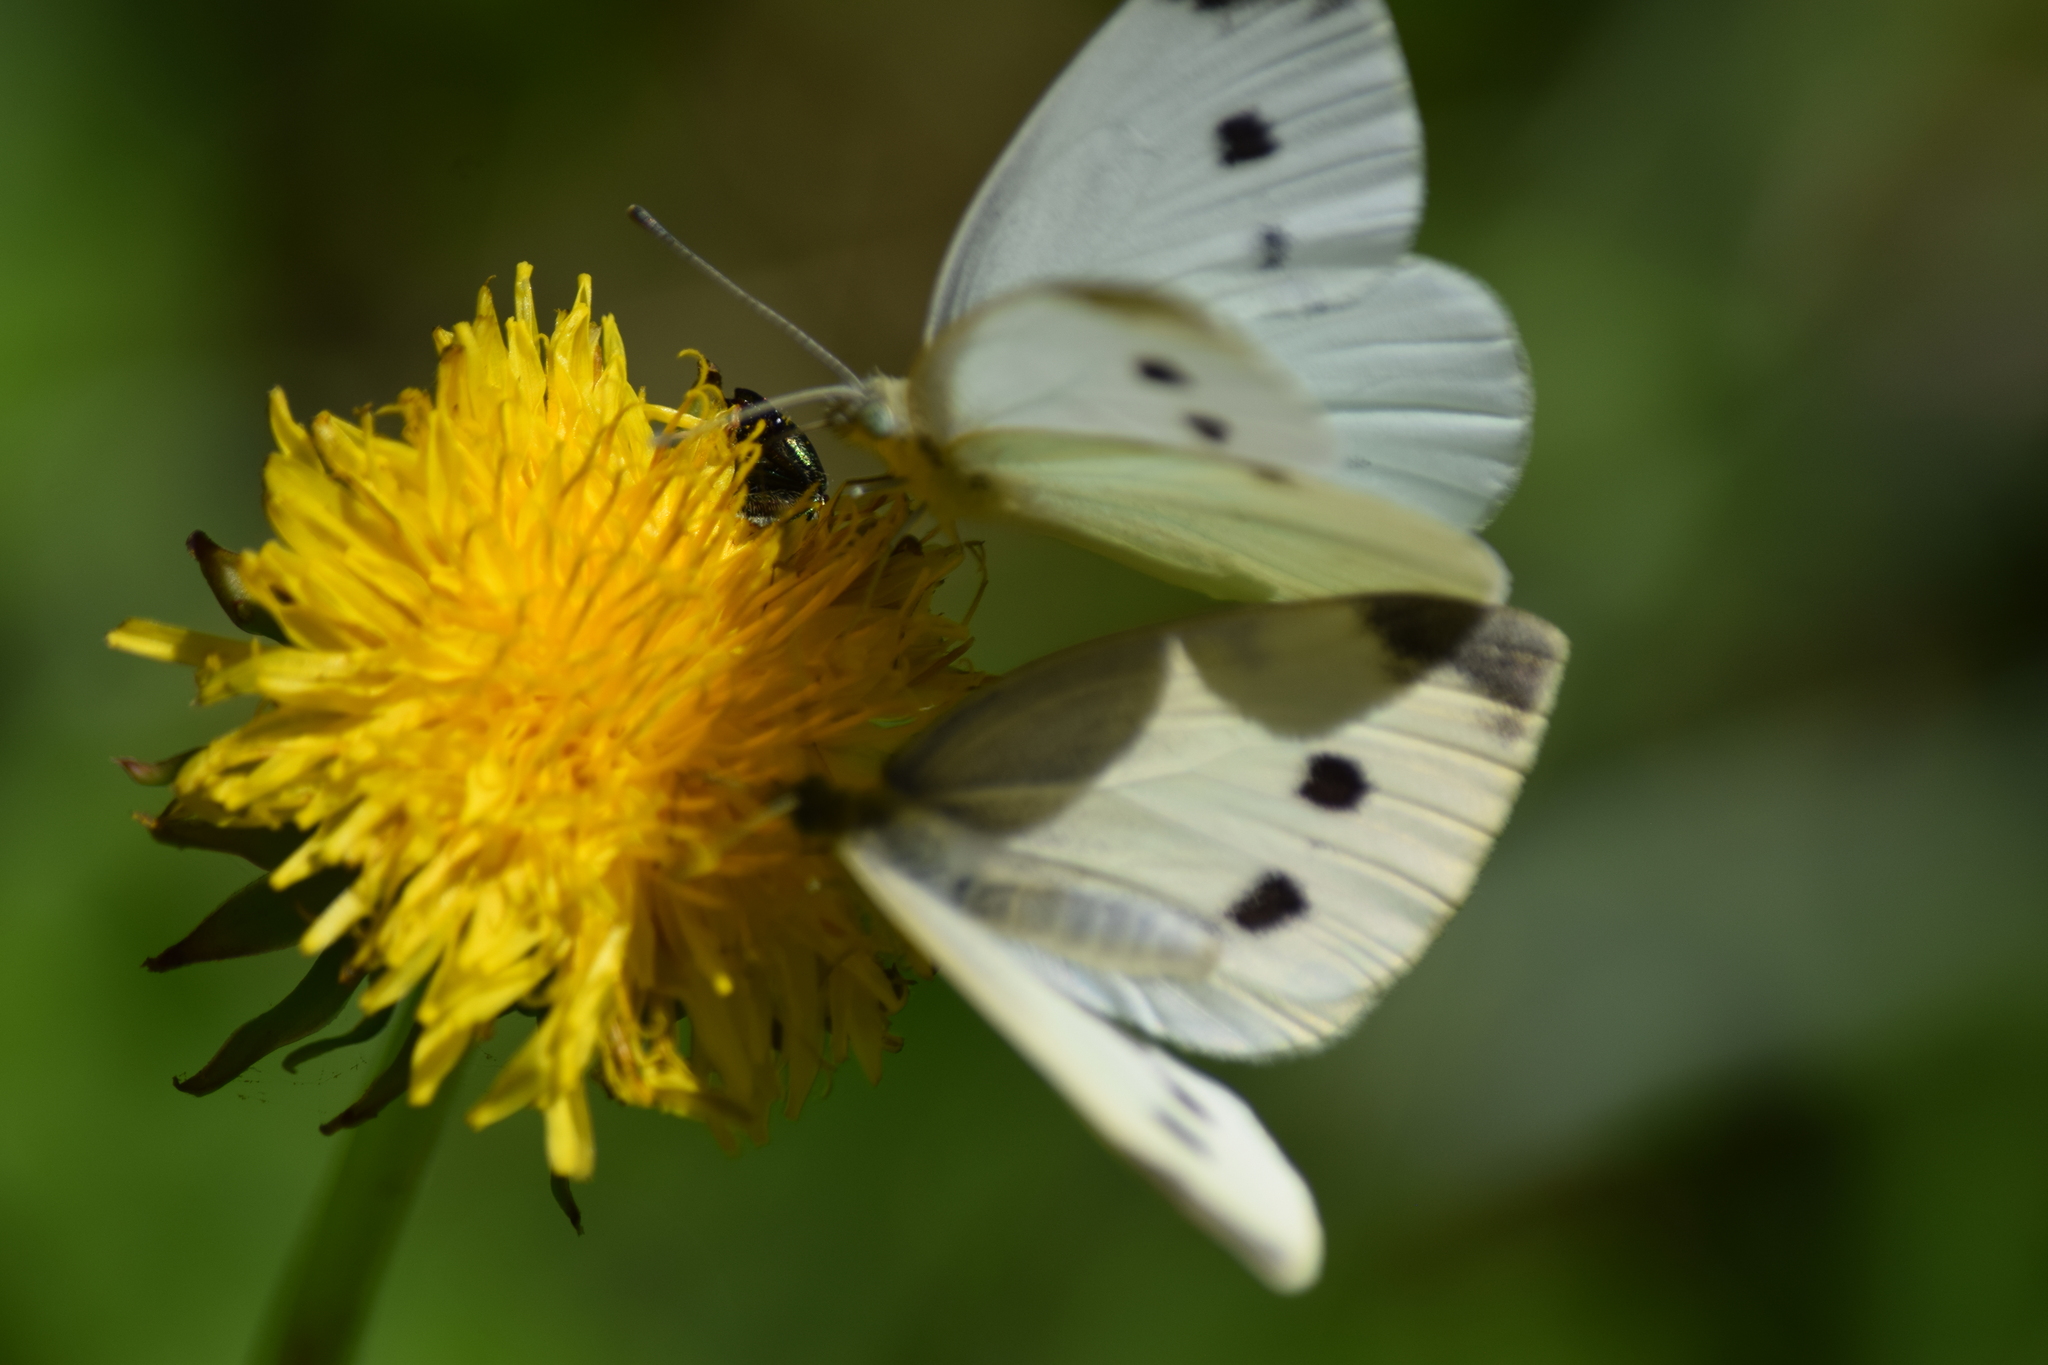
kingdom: Animalia
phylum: Arthropoda
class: Insecta
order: Lepidoptera
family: Pieridae
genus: Pieris
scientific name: Pieris rapae
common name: Small white
